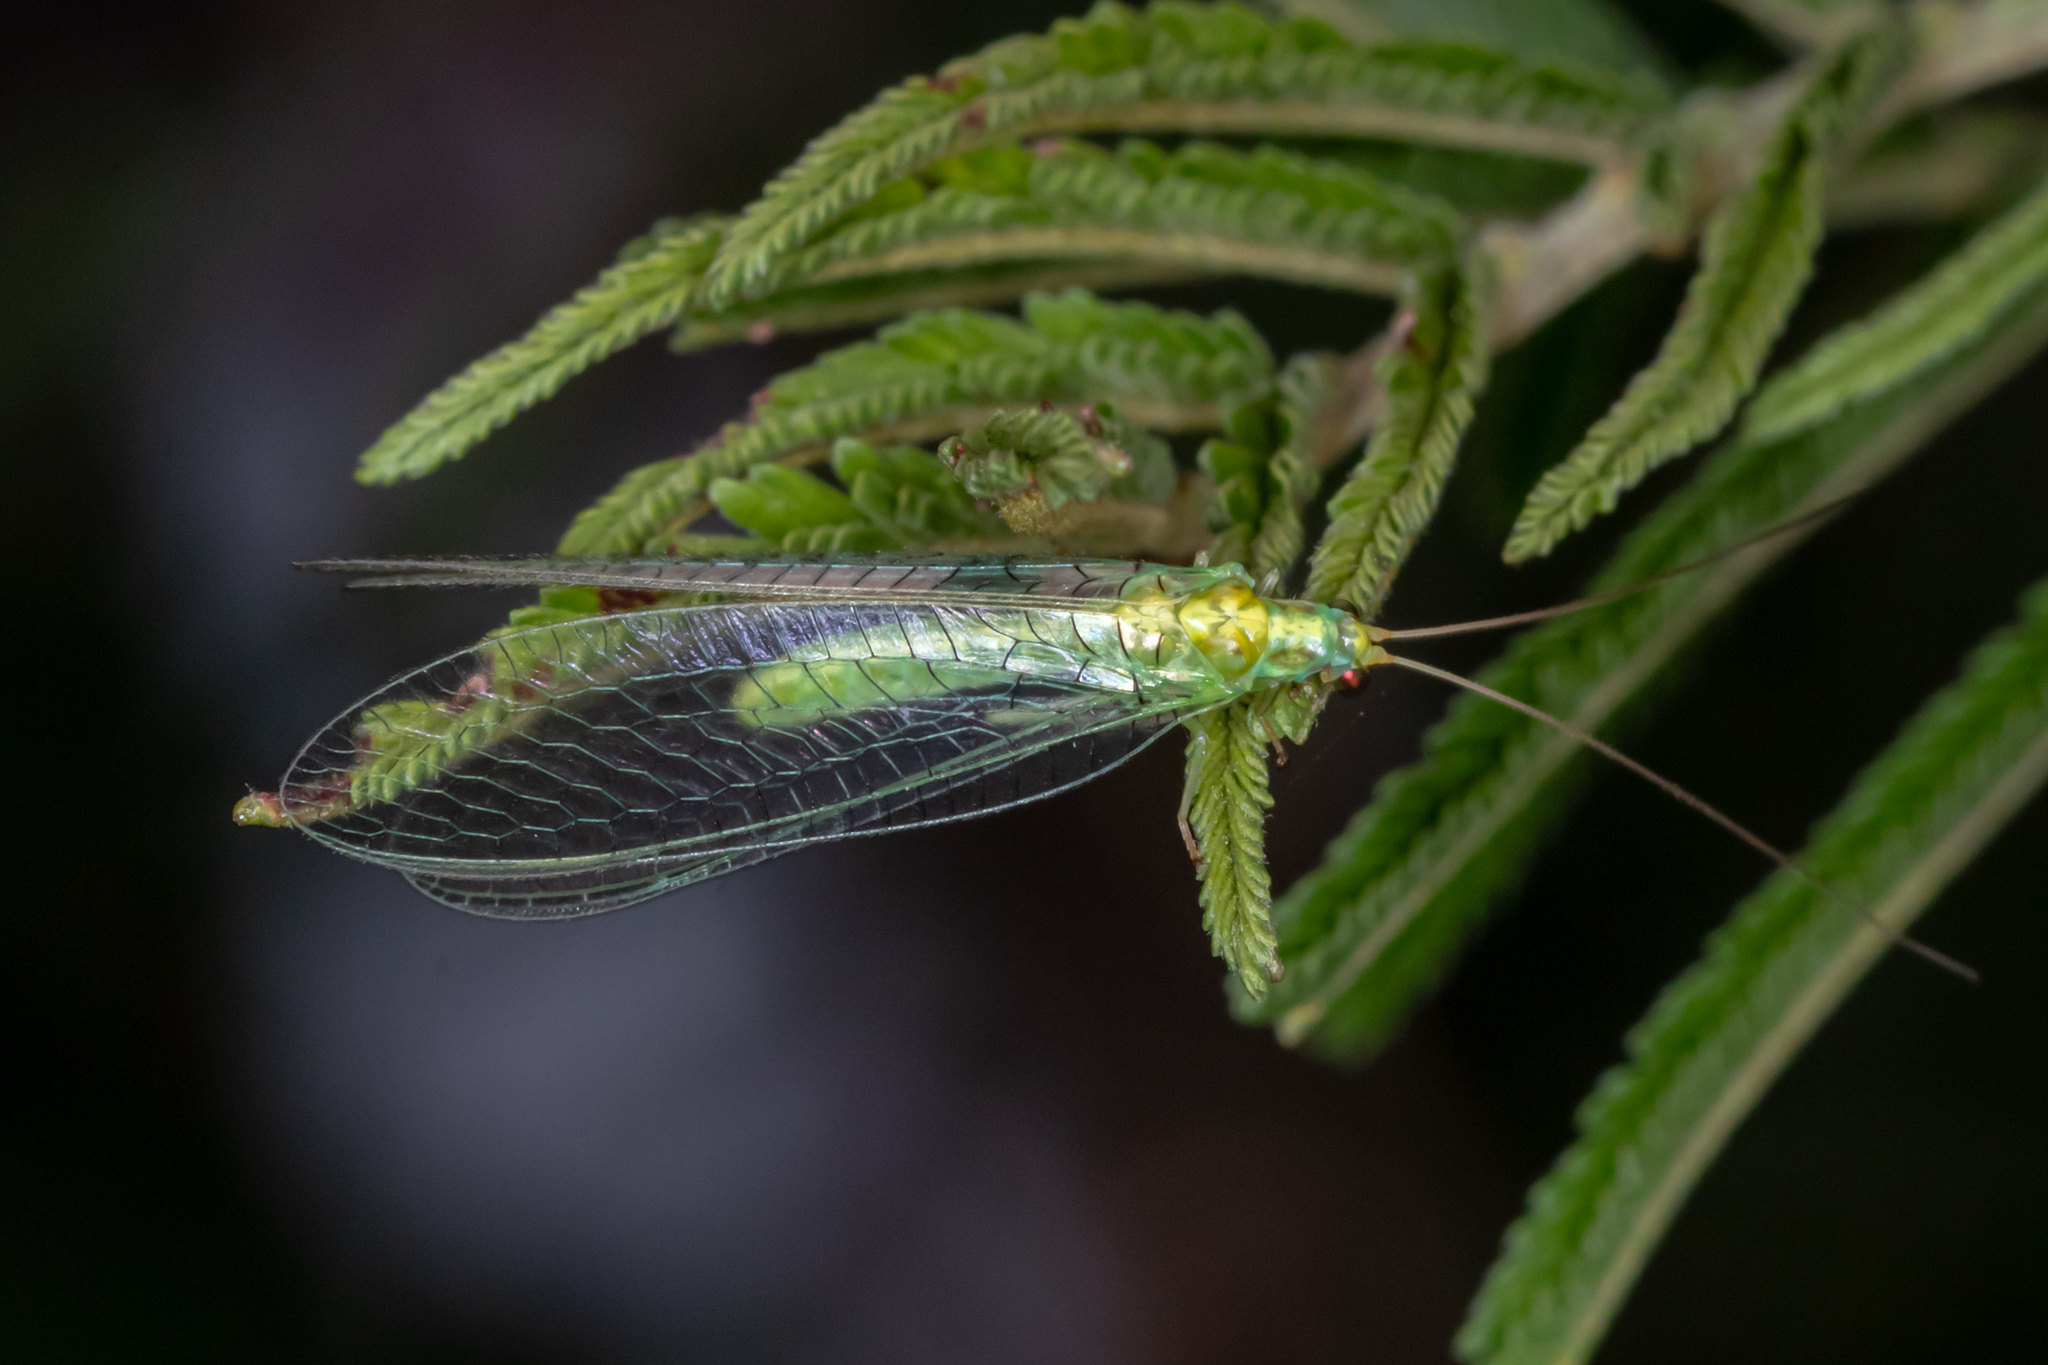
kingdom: Animalia
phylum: Arthropoda
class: Insecta
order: Neuroptera
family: Chrysopidae
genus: Mallada
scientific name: Mallada traviatus
